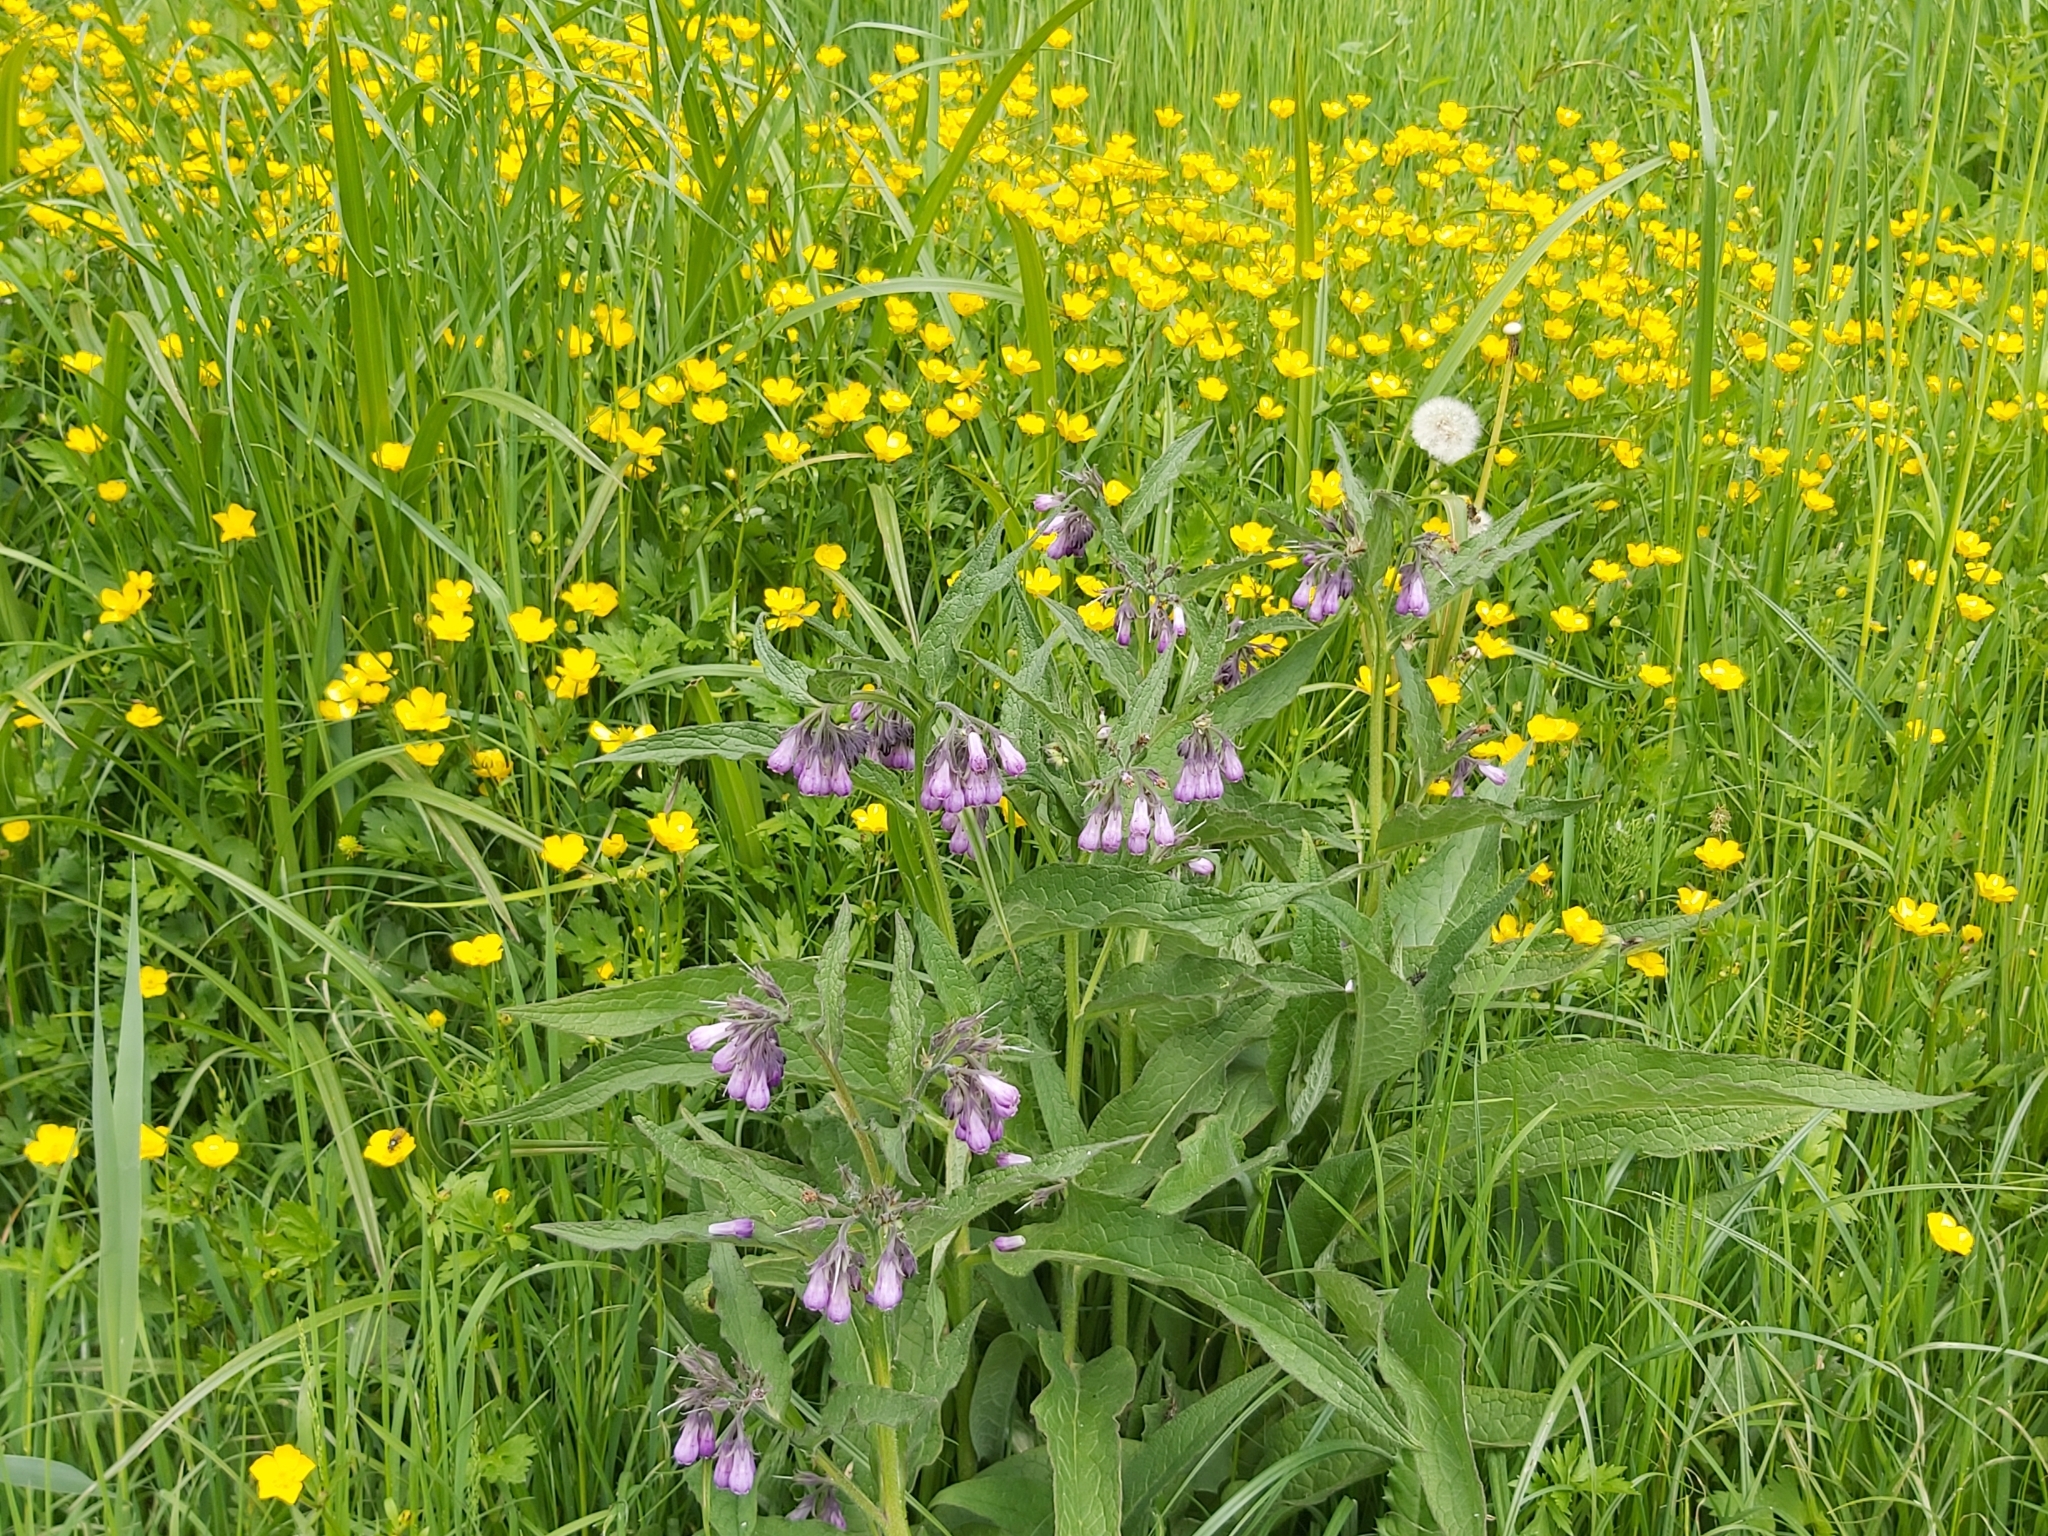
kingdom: Plantae
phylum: Tracheophyta
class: Magnoliopsida
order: Boraginales
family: Boraginaceae
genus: Symphytum
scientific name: Symphytum officinale
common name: Common comfrey
